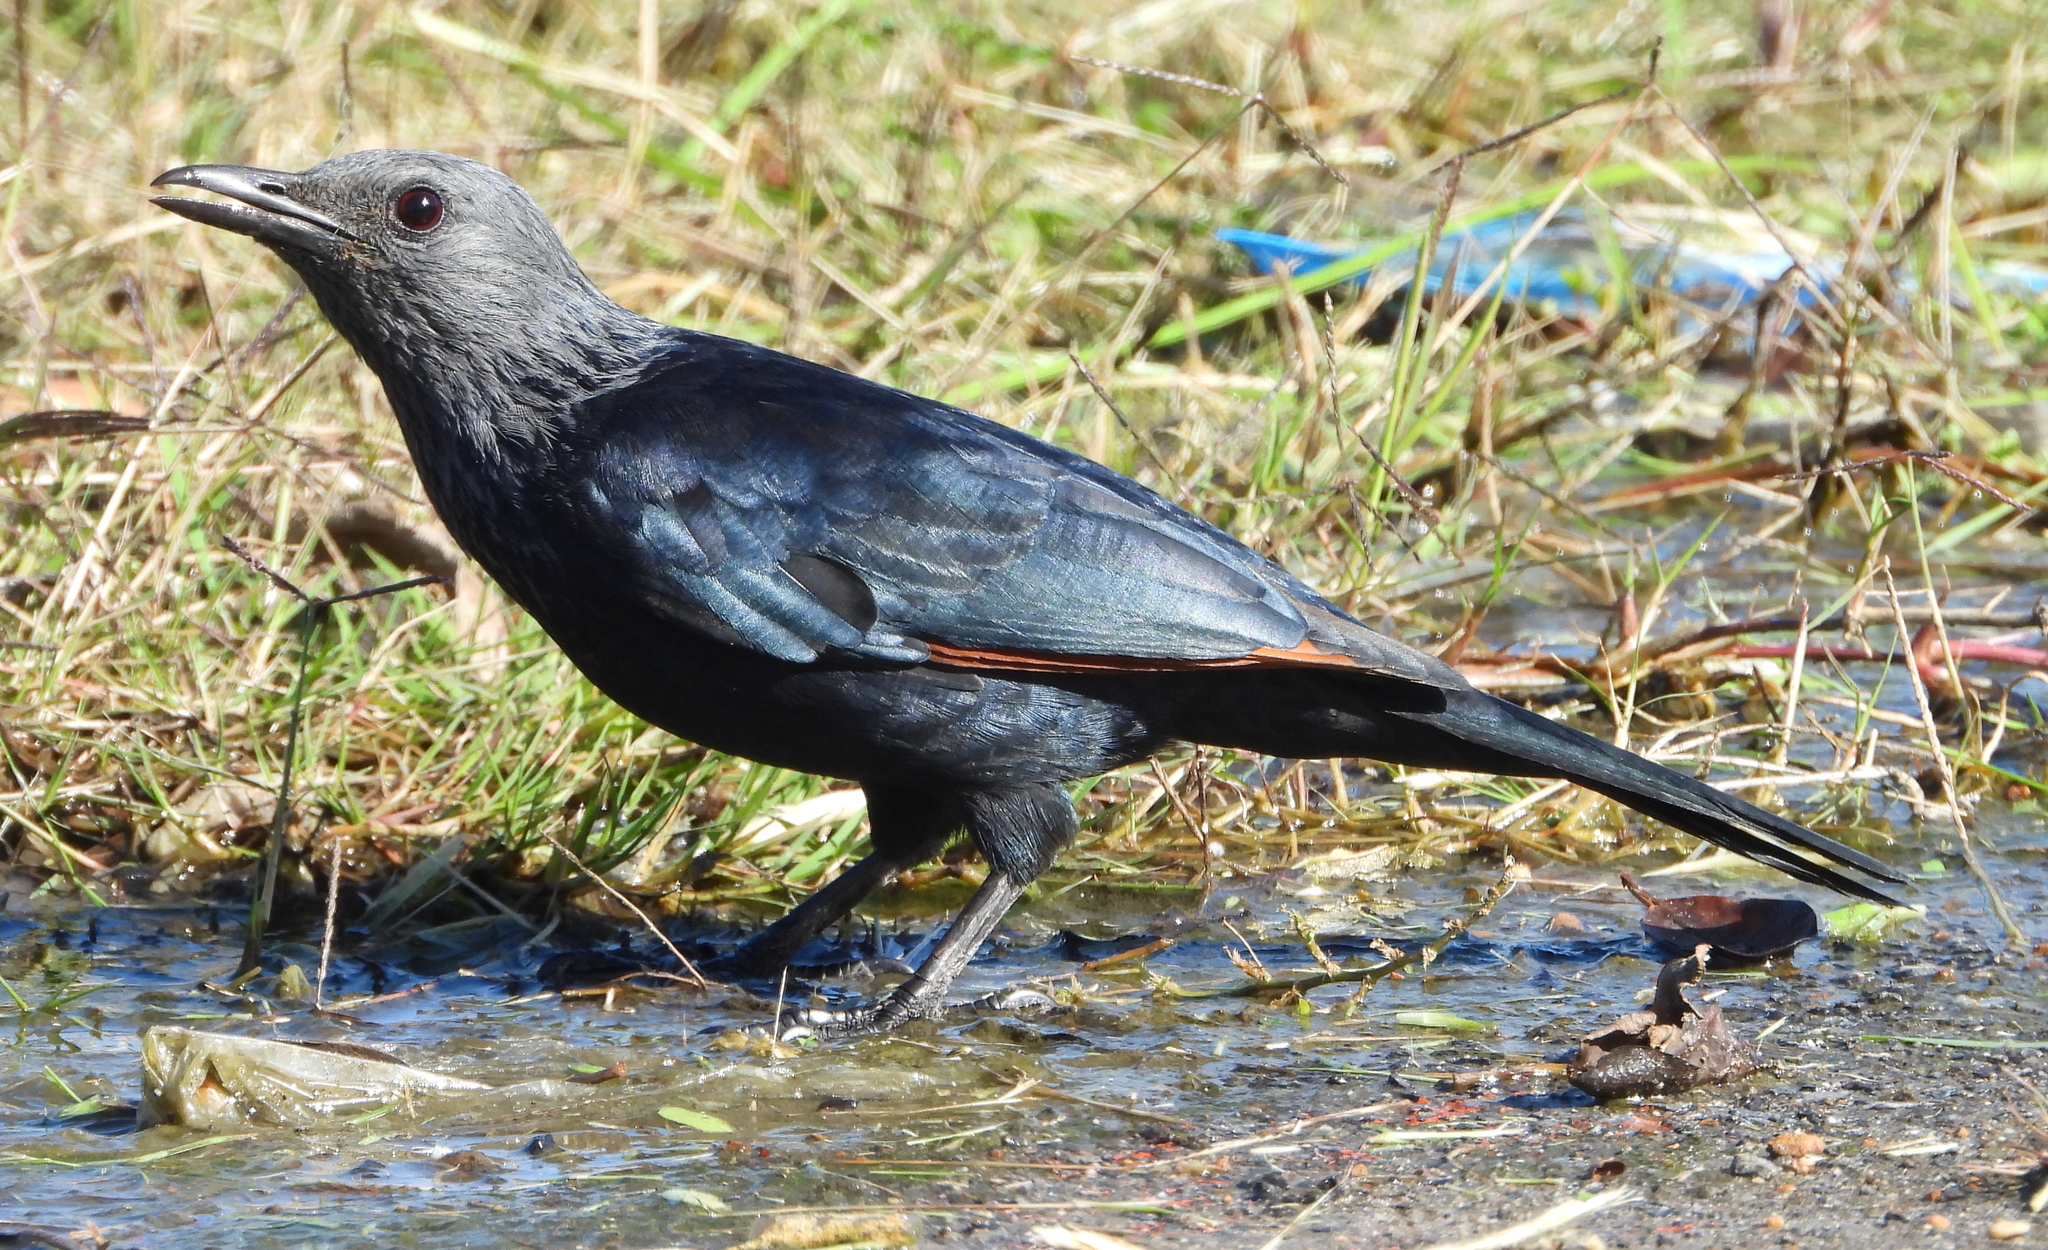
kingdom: Animalia
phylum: Chordata
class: Aves
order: Passeriformes
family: Sturnidae
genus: Onychognathus
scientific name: Onychognathus morio
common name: Red-winged starling
